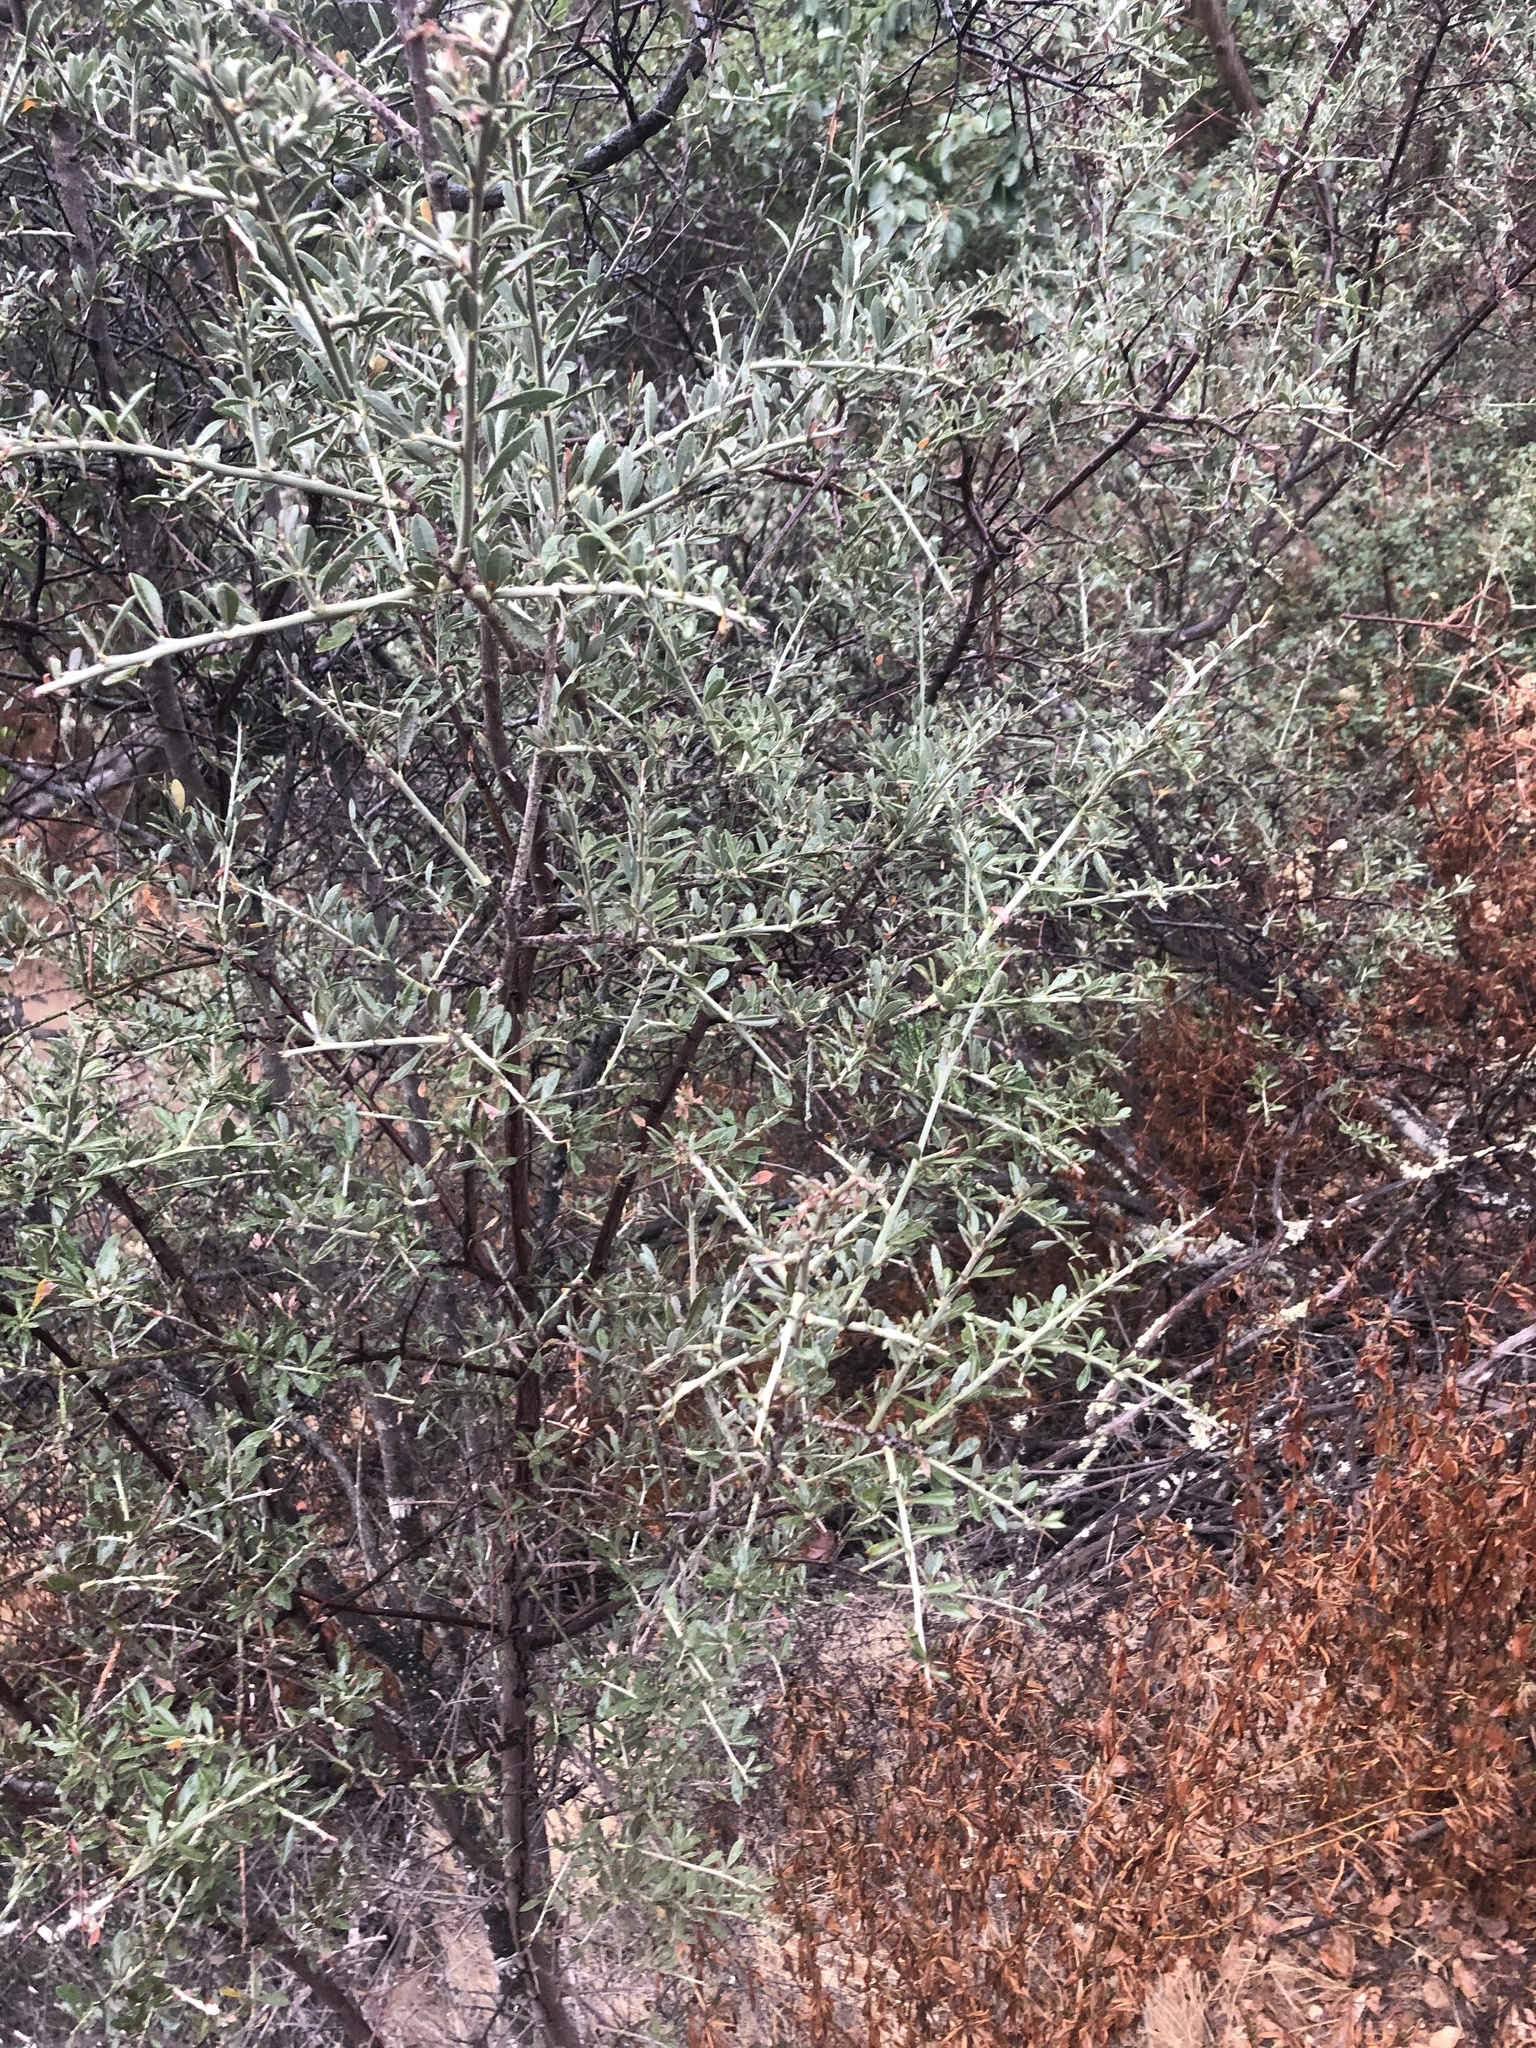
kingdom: Plantae
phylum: Tracheophyta
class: Magnoliopsida
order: Fabales
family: Fabaceae
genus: Pickeringia
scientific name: Pickeringia montana
